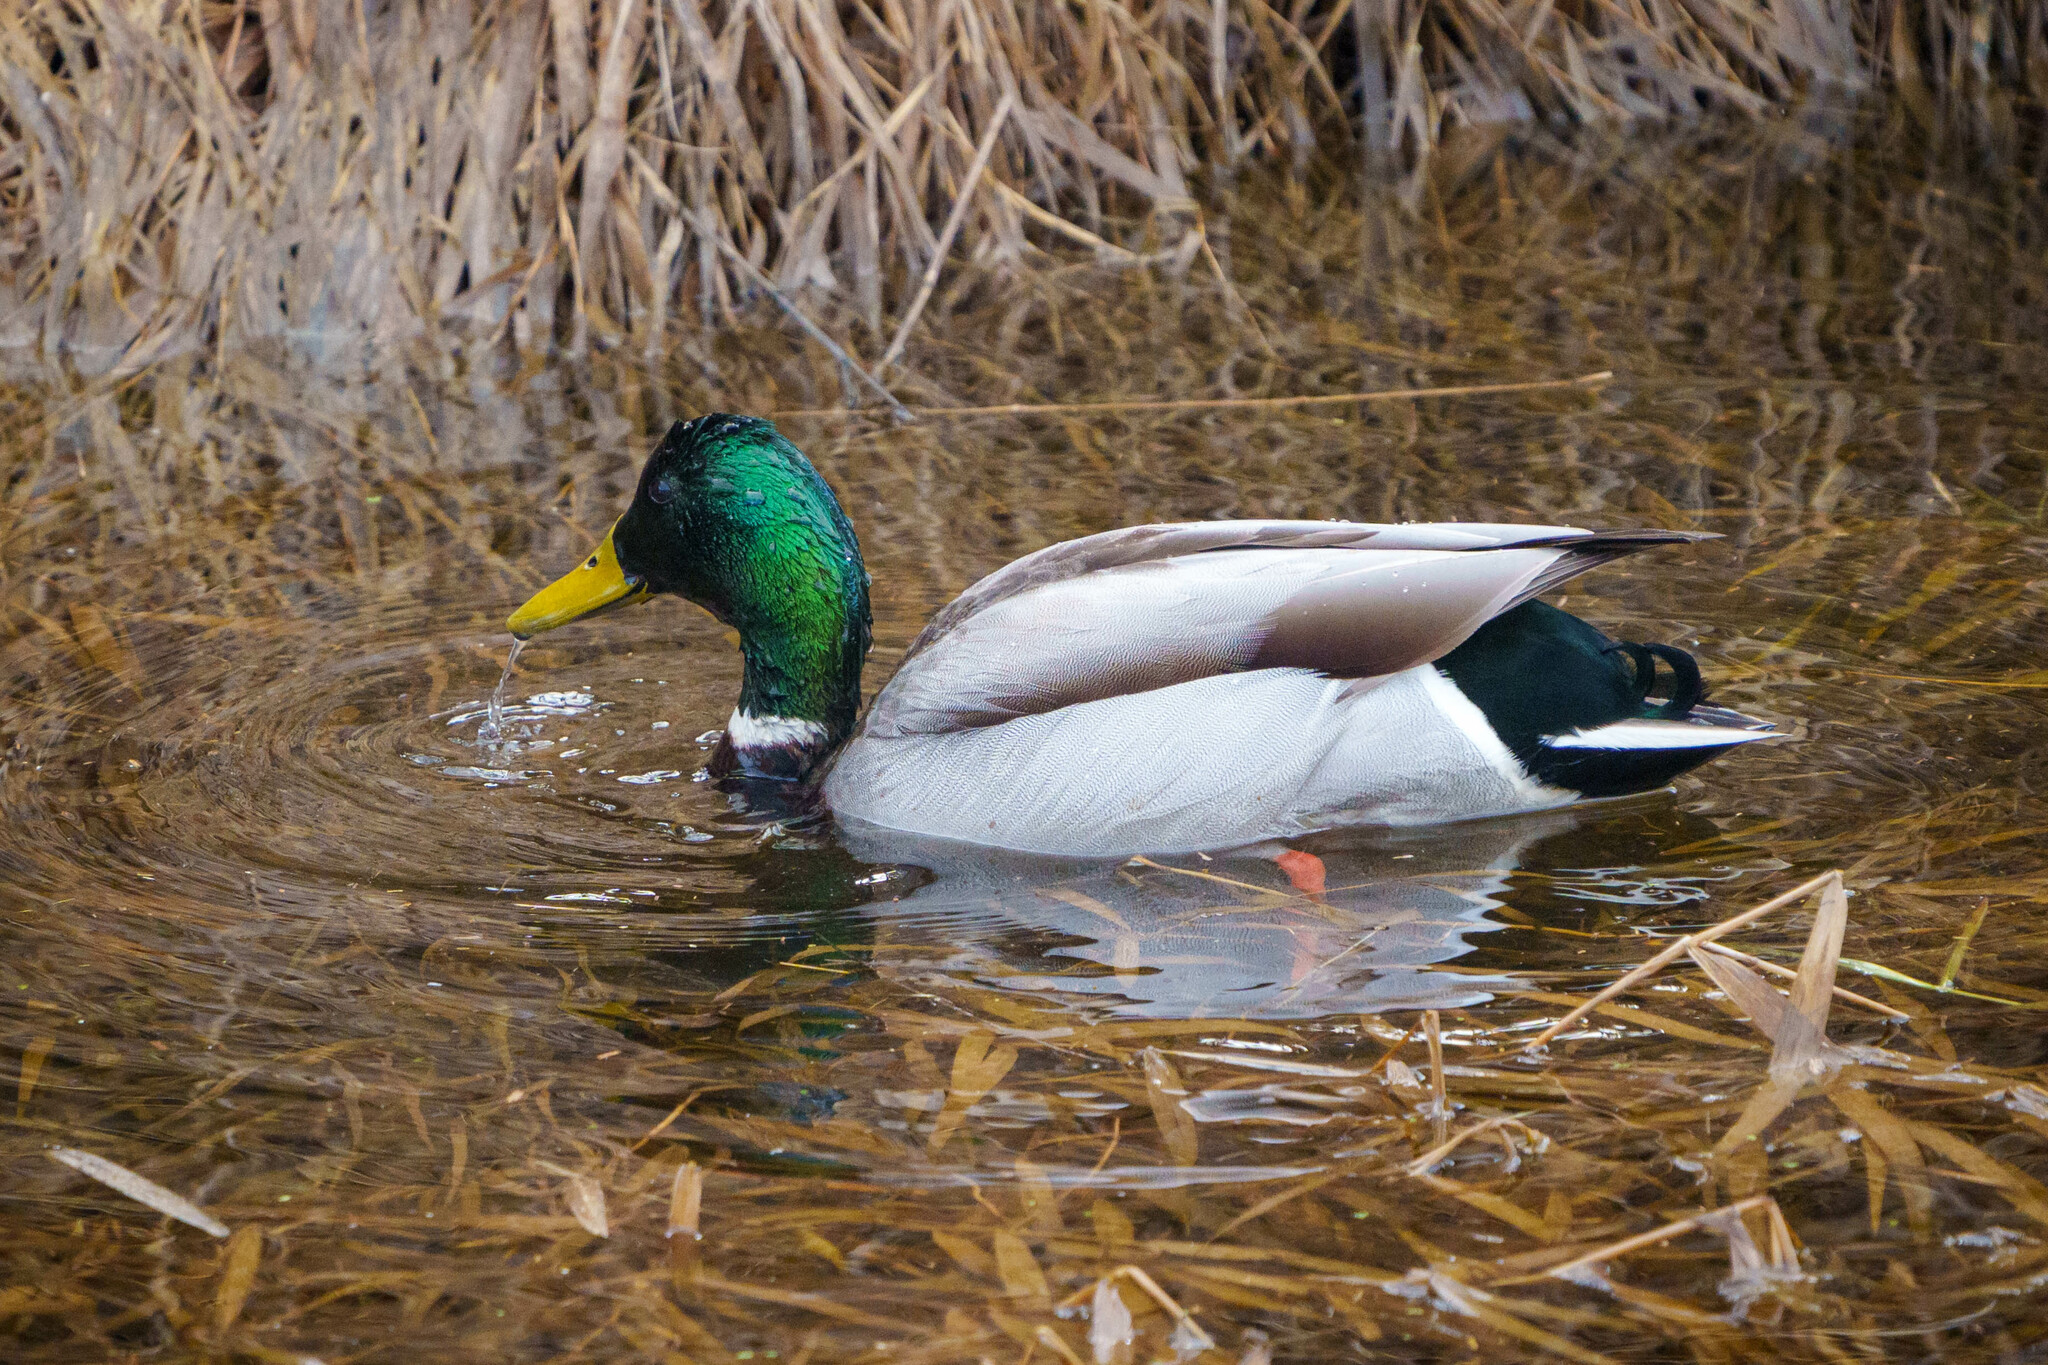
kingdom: Animalia
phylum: Chordata
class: Aves
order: Anseriformes
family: Anatidae
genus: Anas
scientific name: Anas platyrhynchos
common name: Mallard
